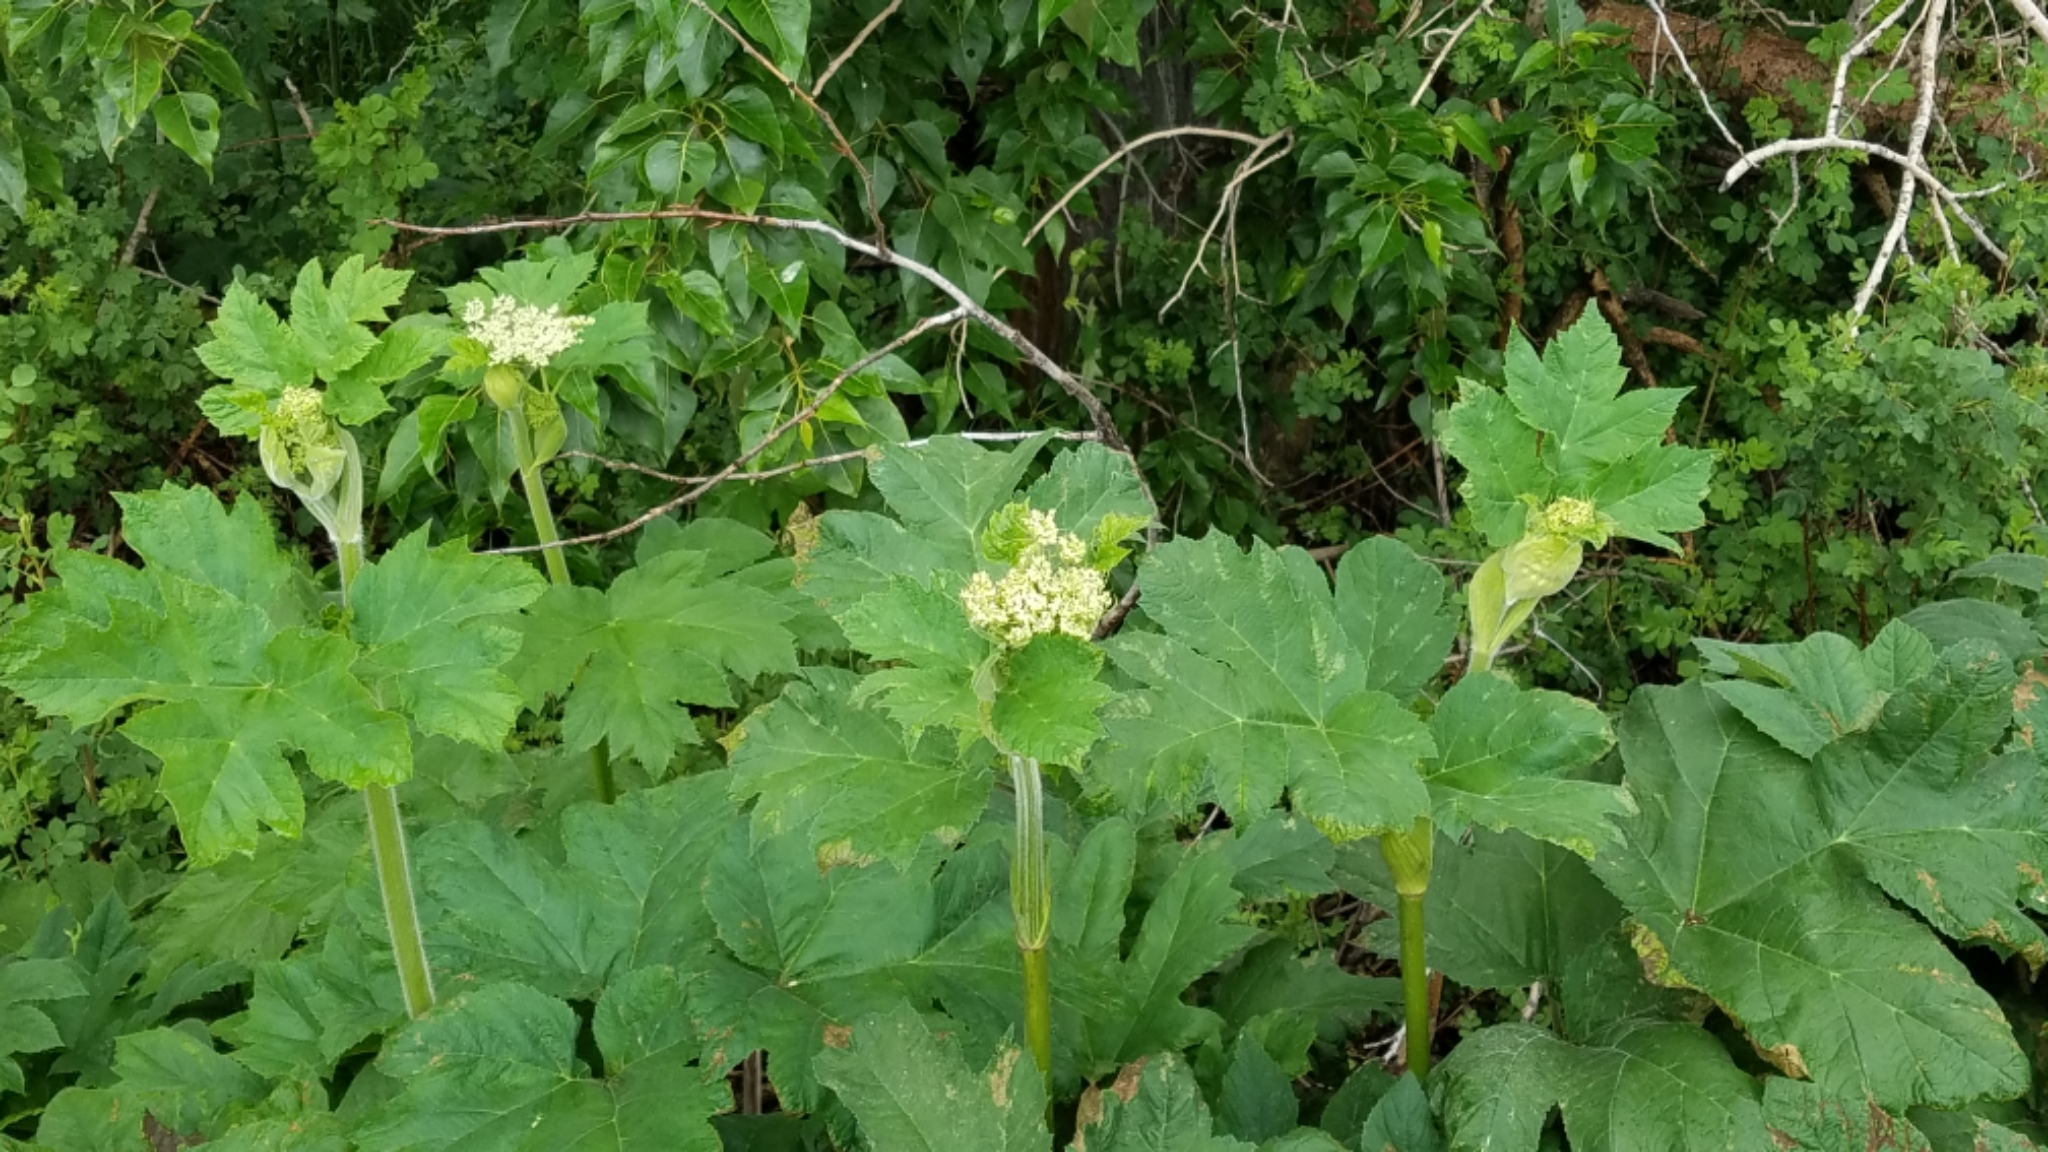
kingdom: Plantae
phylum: Tracheophyta
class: Magnoliopsida
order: Apiales
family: Apiaceae
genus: Heracleum
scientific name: Heracleum maximum
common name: American cow parsnip
